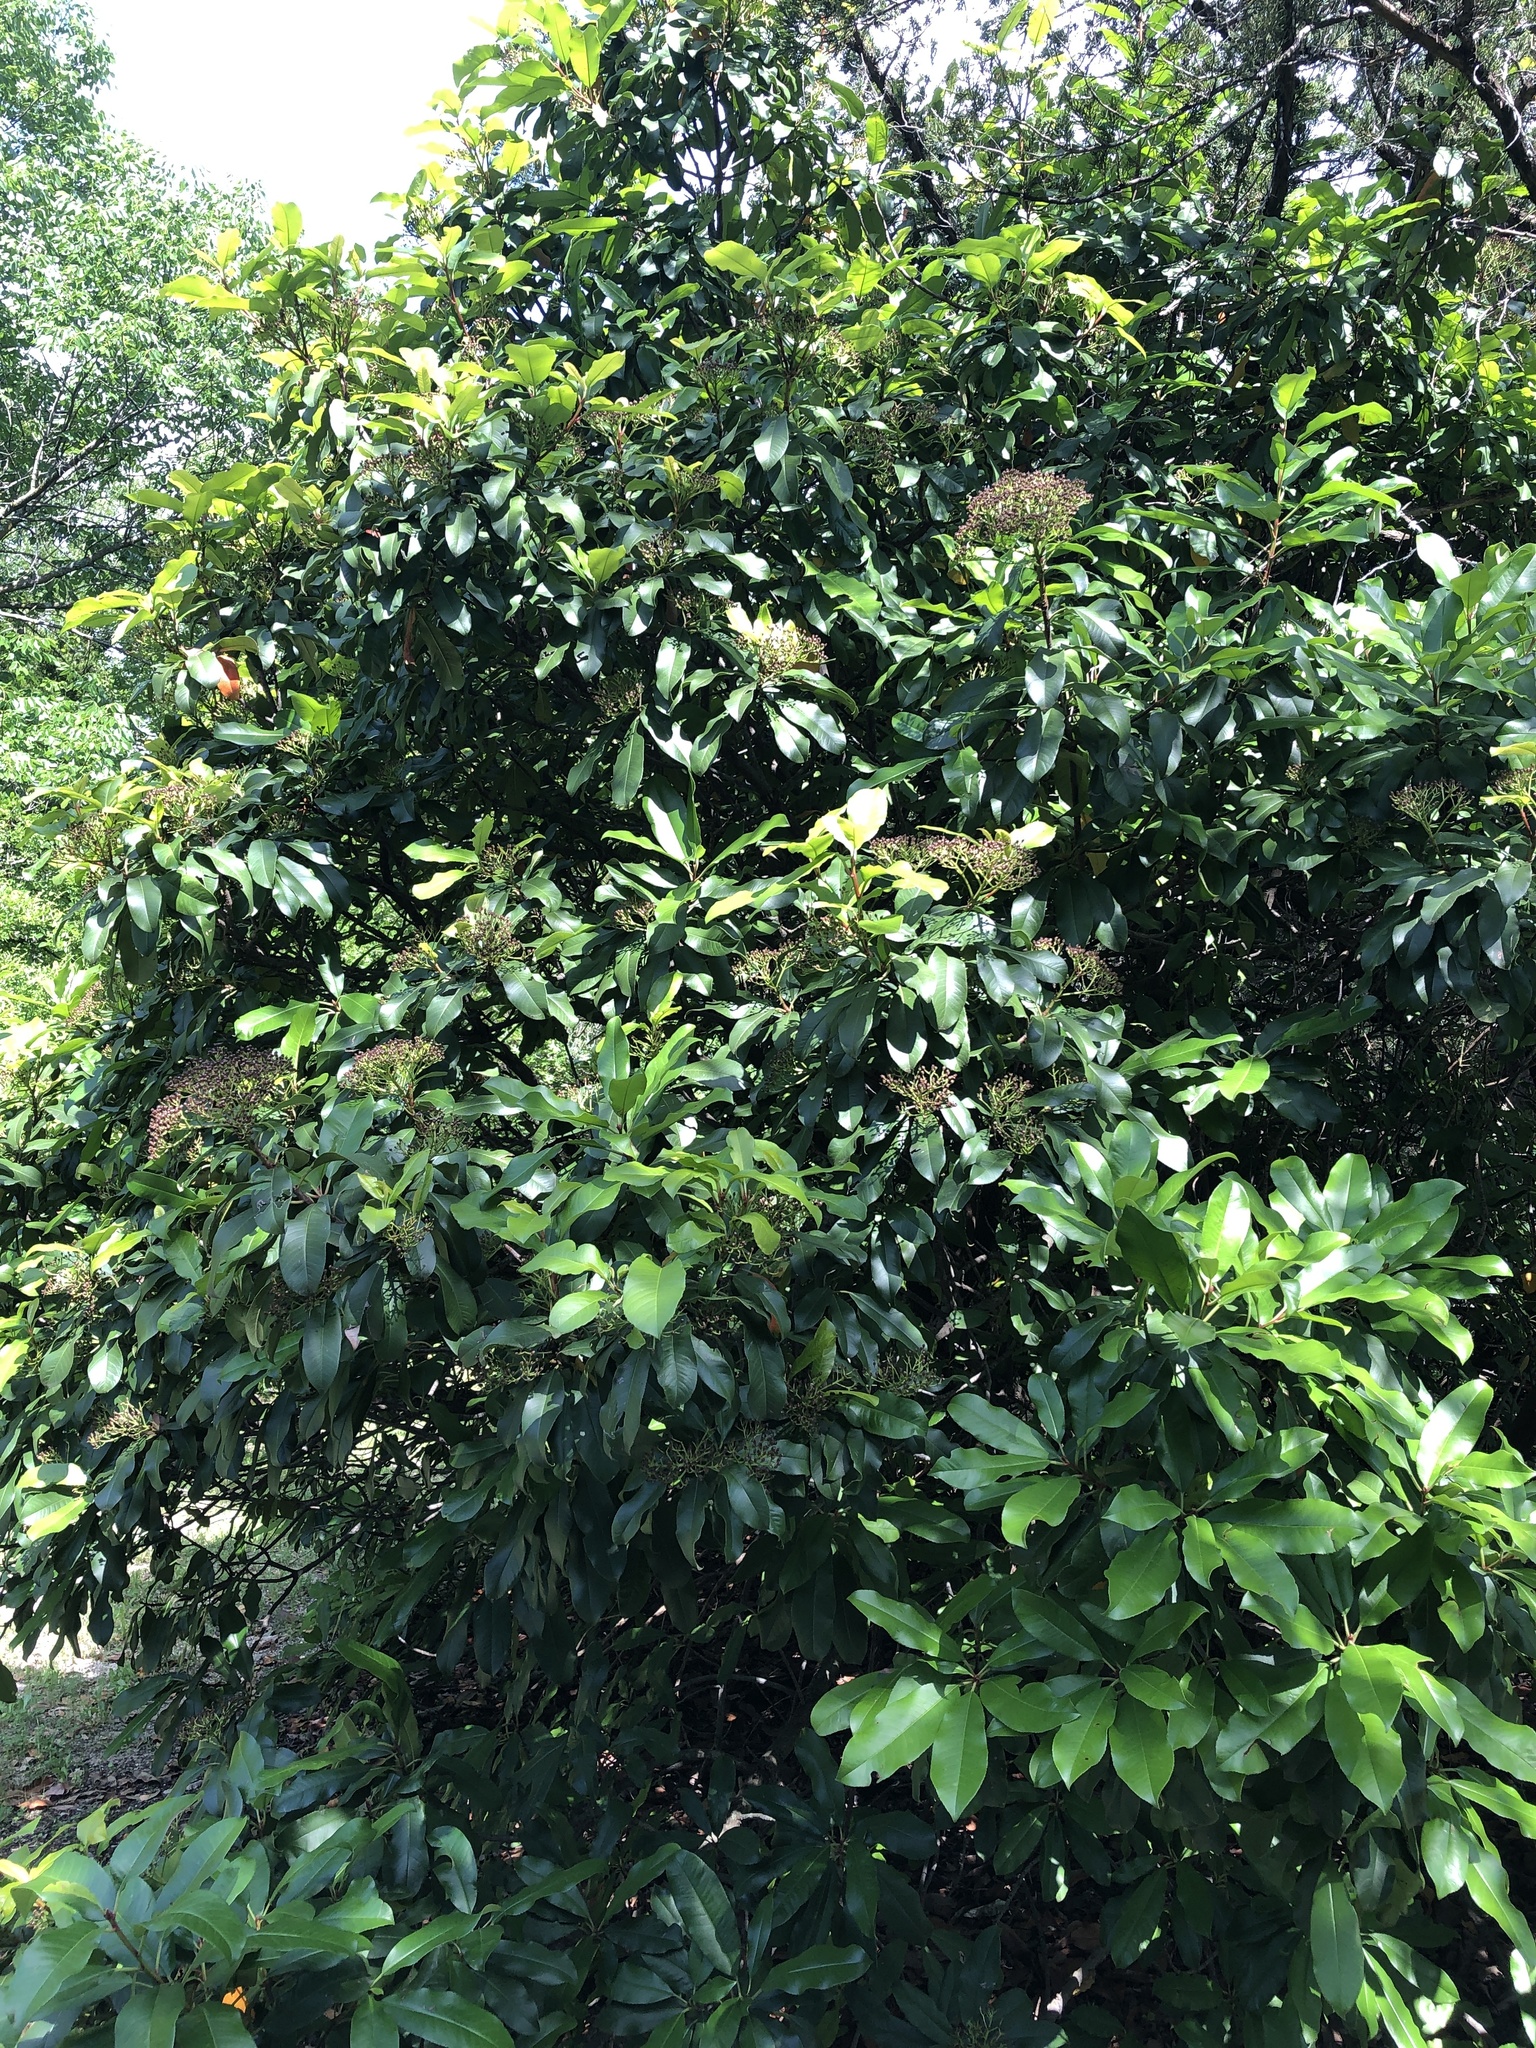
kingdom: Plantae
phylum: Tracheophyta
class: Magnoliopsida
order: Rosales
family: Rosaceae
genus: Photinia
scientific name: Photinia serratifolia
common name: Taiwanese photinia
